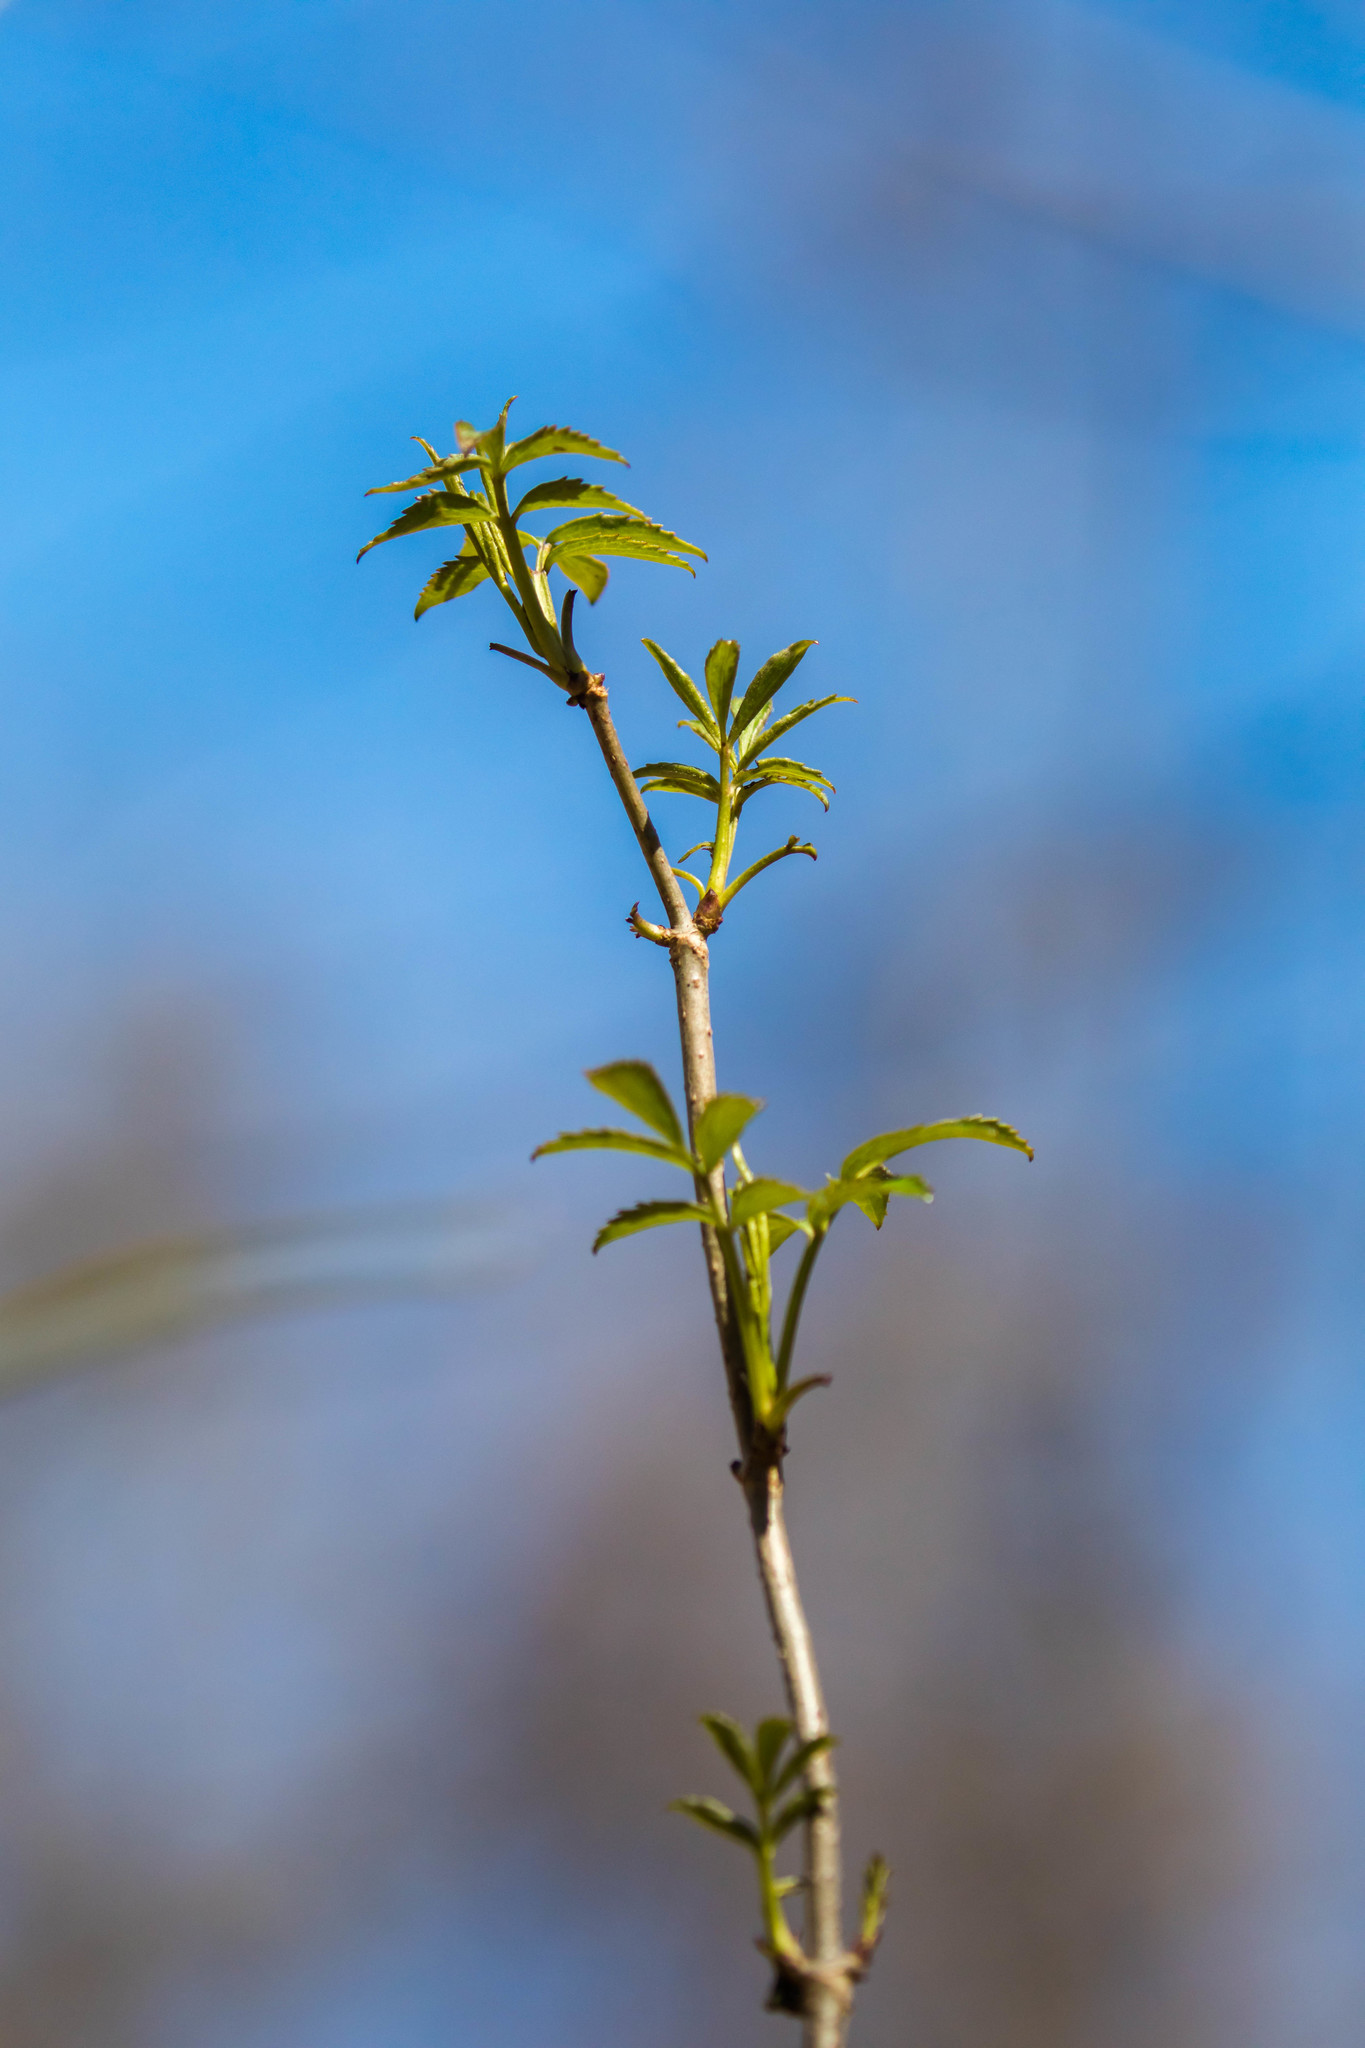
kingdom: Plantae
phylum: Tracheophyta
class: Magnoliopsida
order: Dipsacales
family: Viburnaceae
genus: Sambucus
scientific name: Sambucus canadensis
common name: American elder
